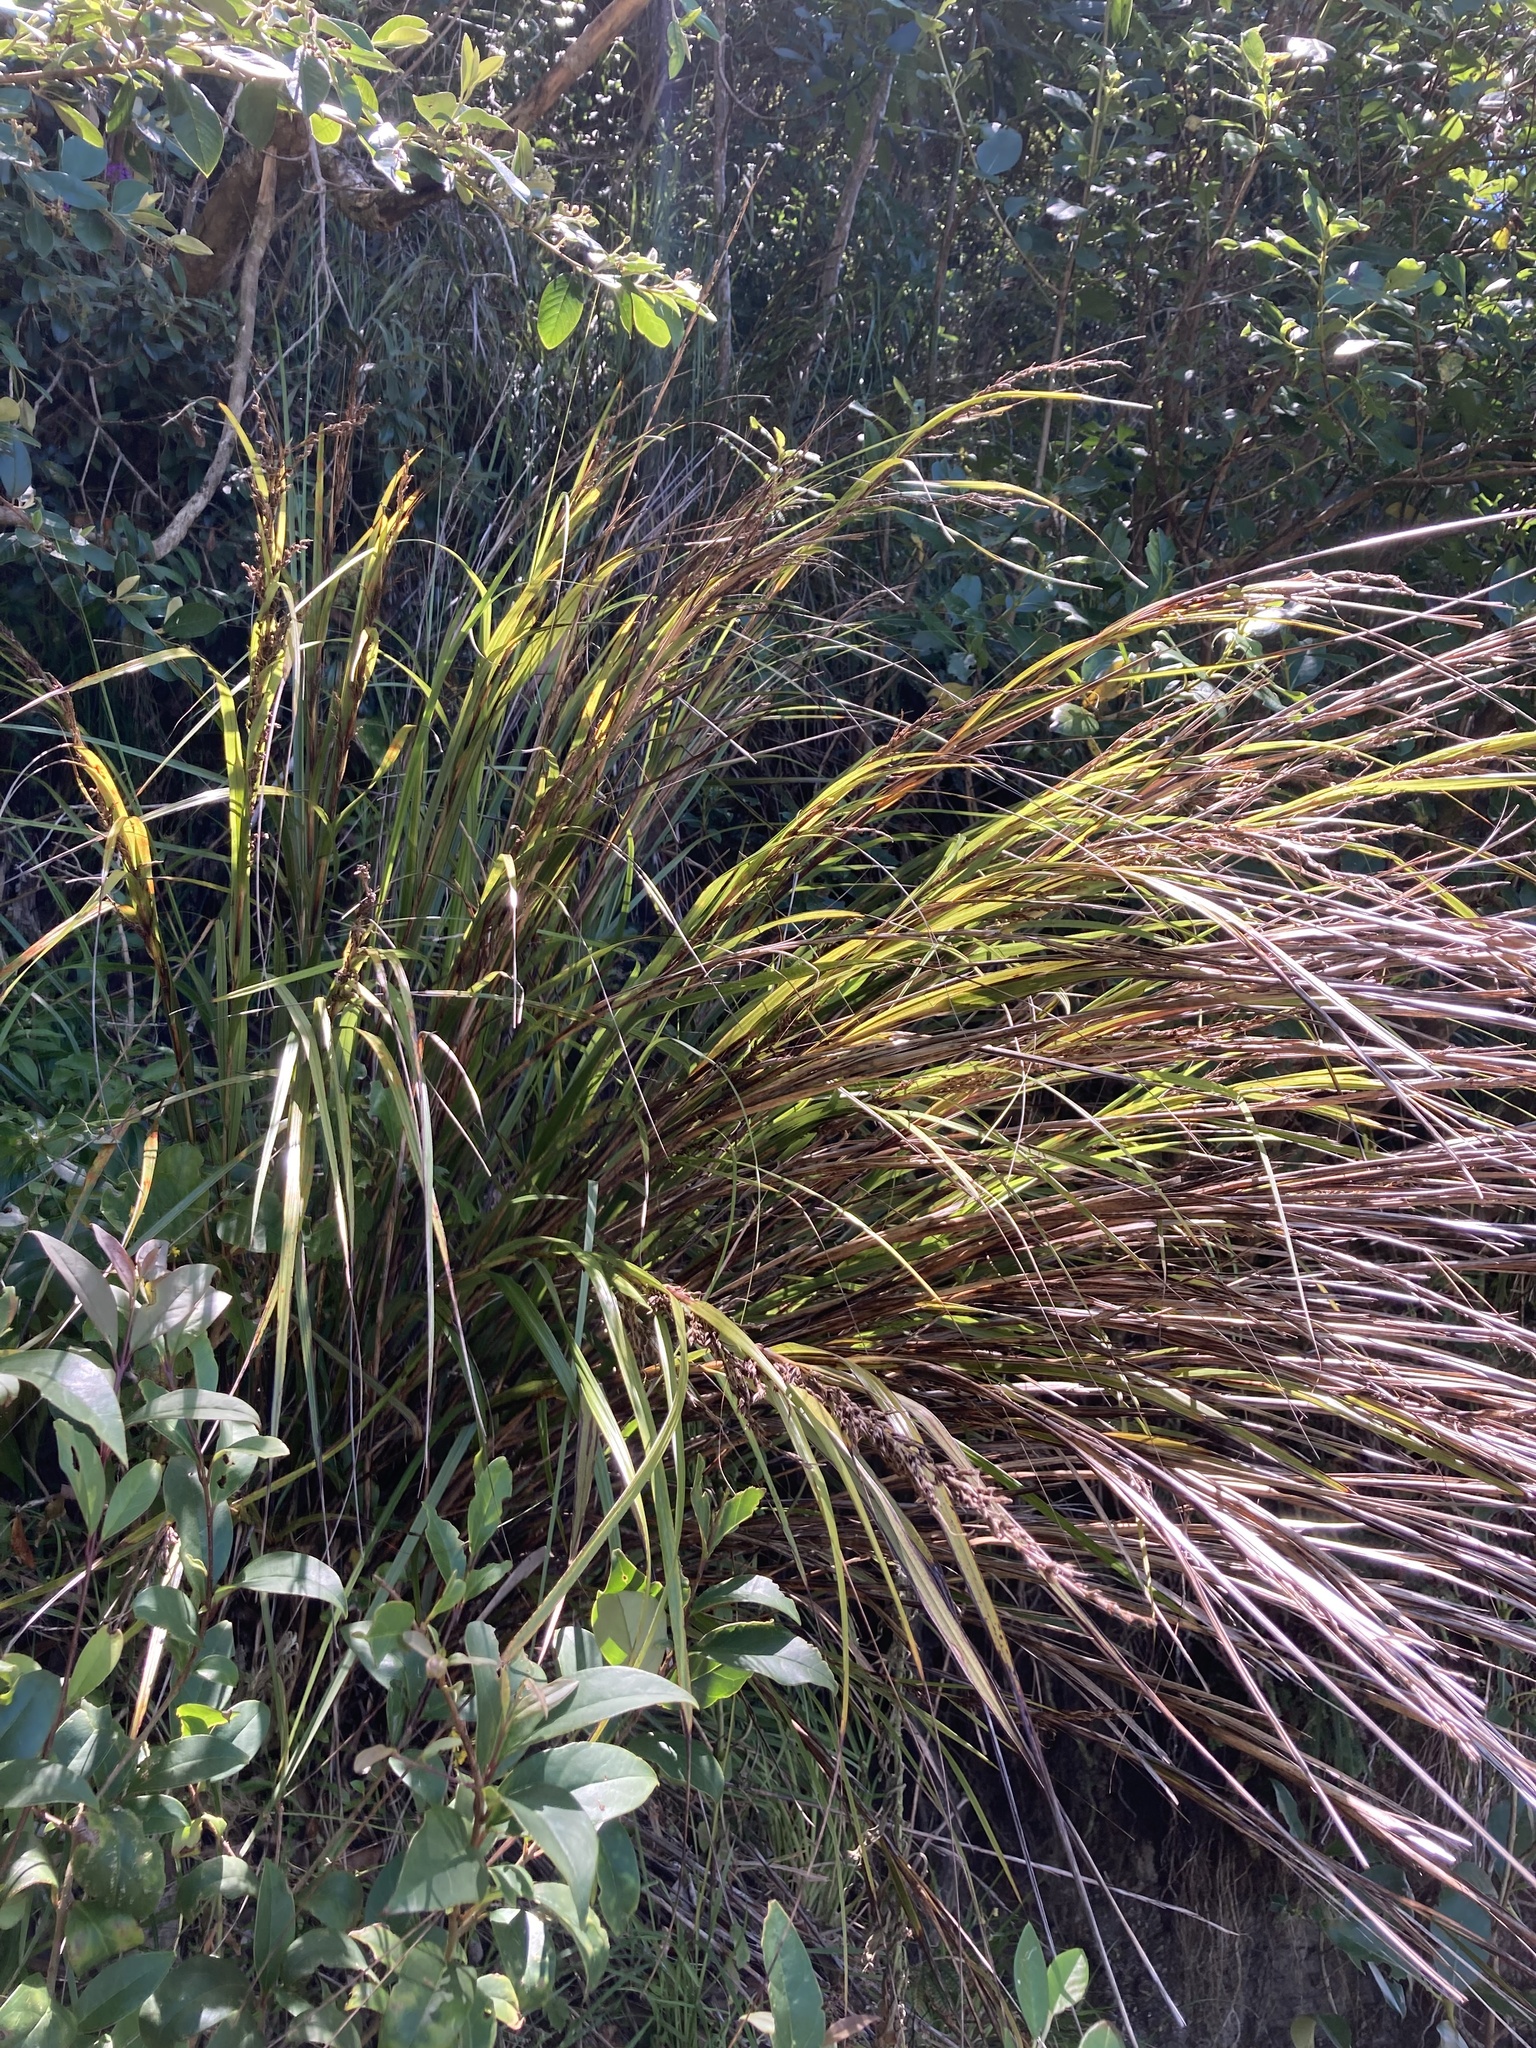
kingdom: Plantae
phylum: Tracheophyta
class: Liliopsida
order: Poales
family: Cyperaceae
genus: Gahnia
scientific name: Gahnia lacera
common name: Sawsedge
